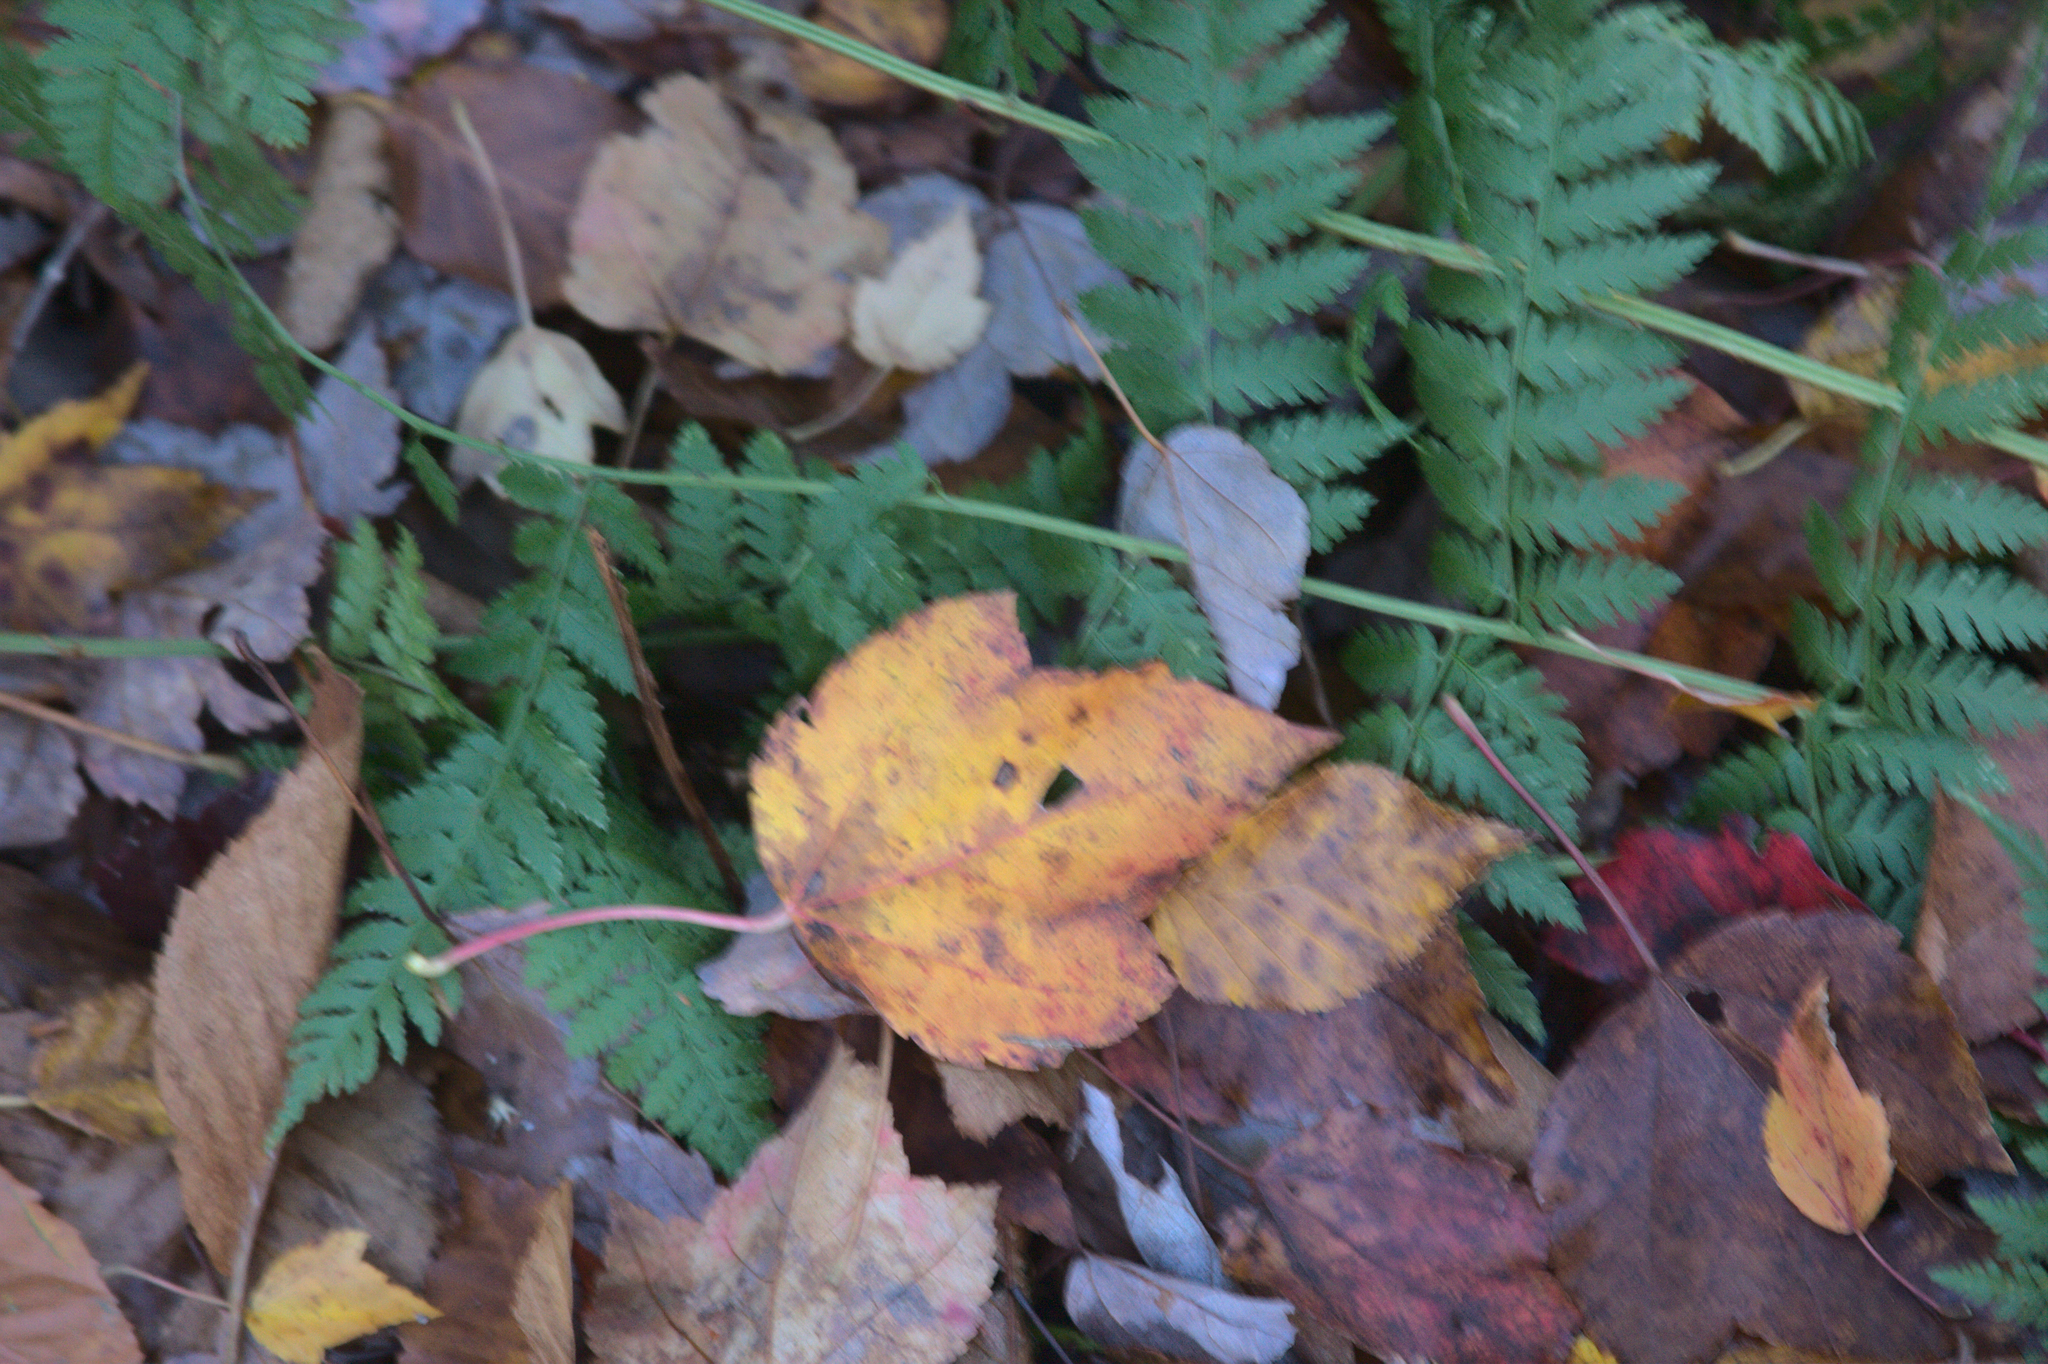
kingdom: Plantae
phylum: Tracheophyta
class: Polypodiopsida
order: Polypodiales
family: Dryopteridaceae
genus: Dryopteris
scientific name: Dryopteris intermedia
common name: Evergreen wood fern
